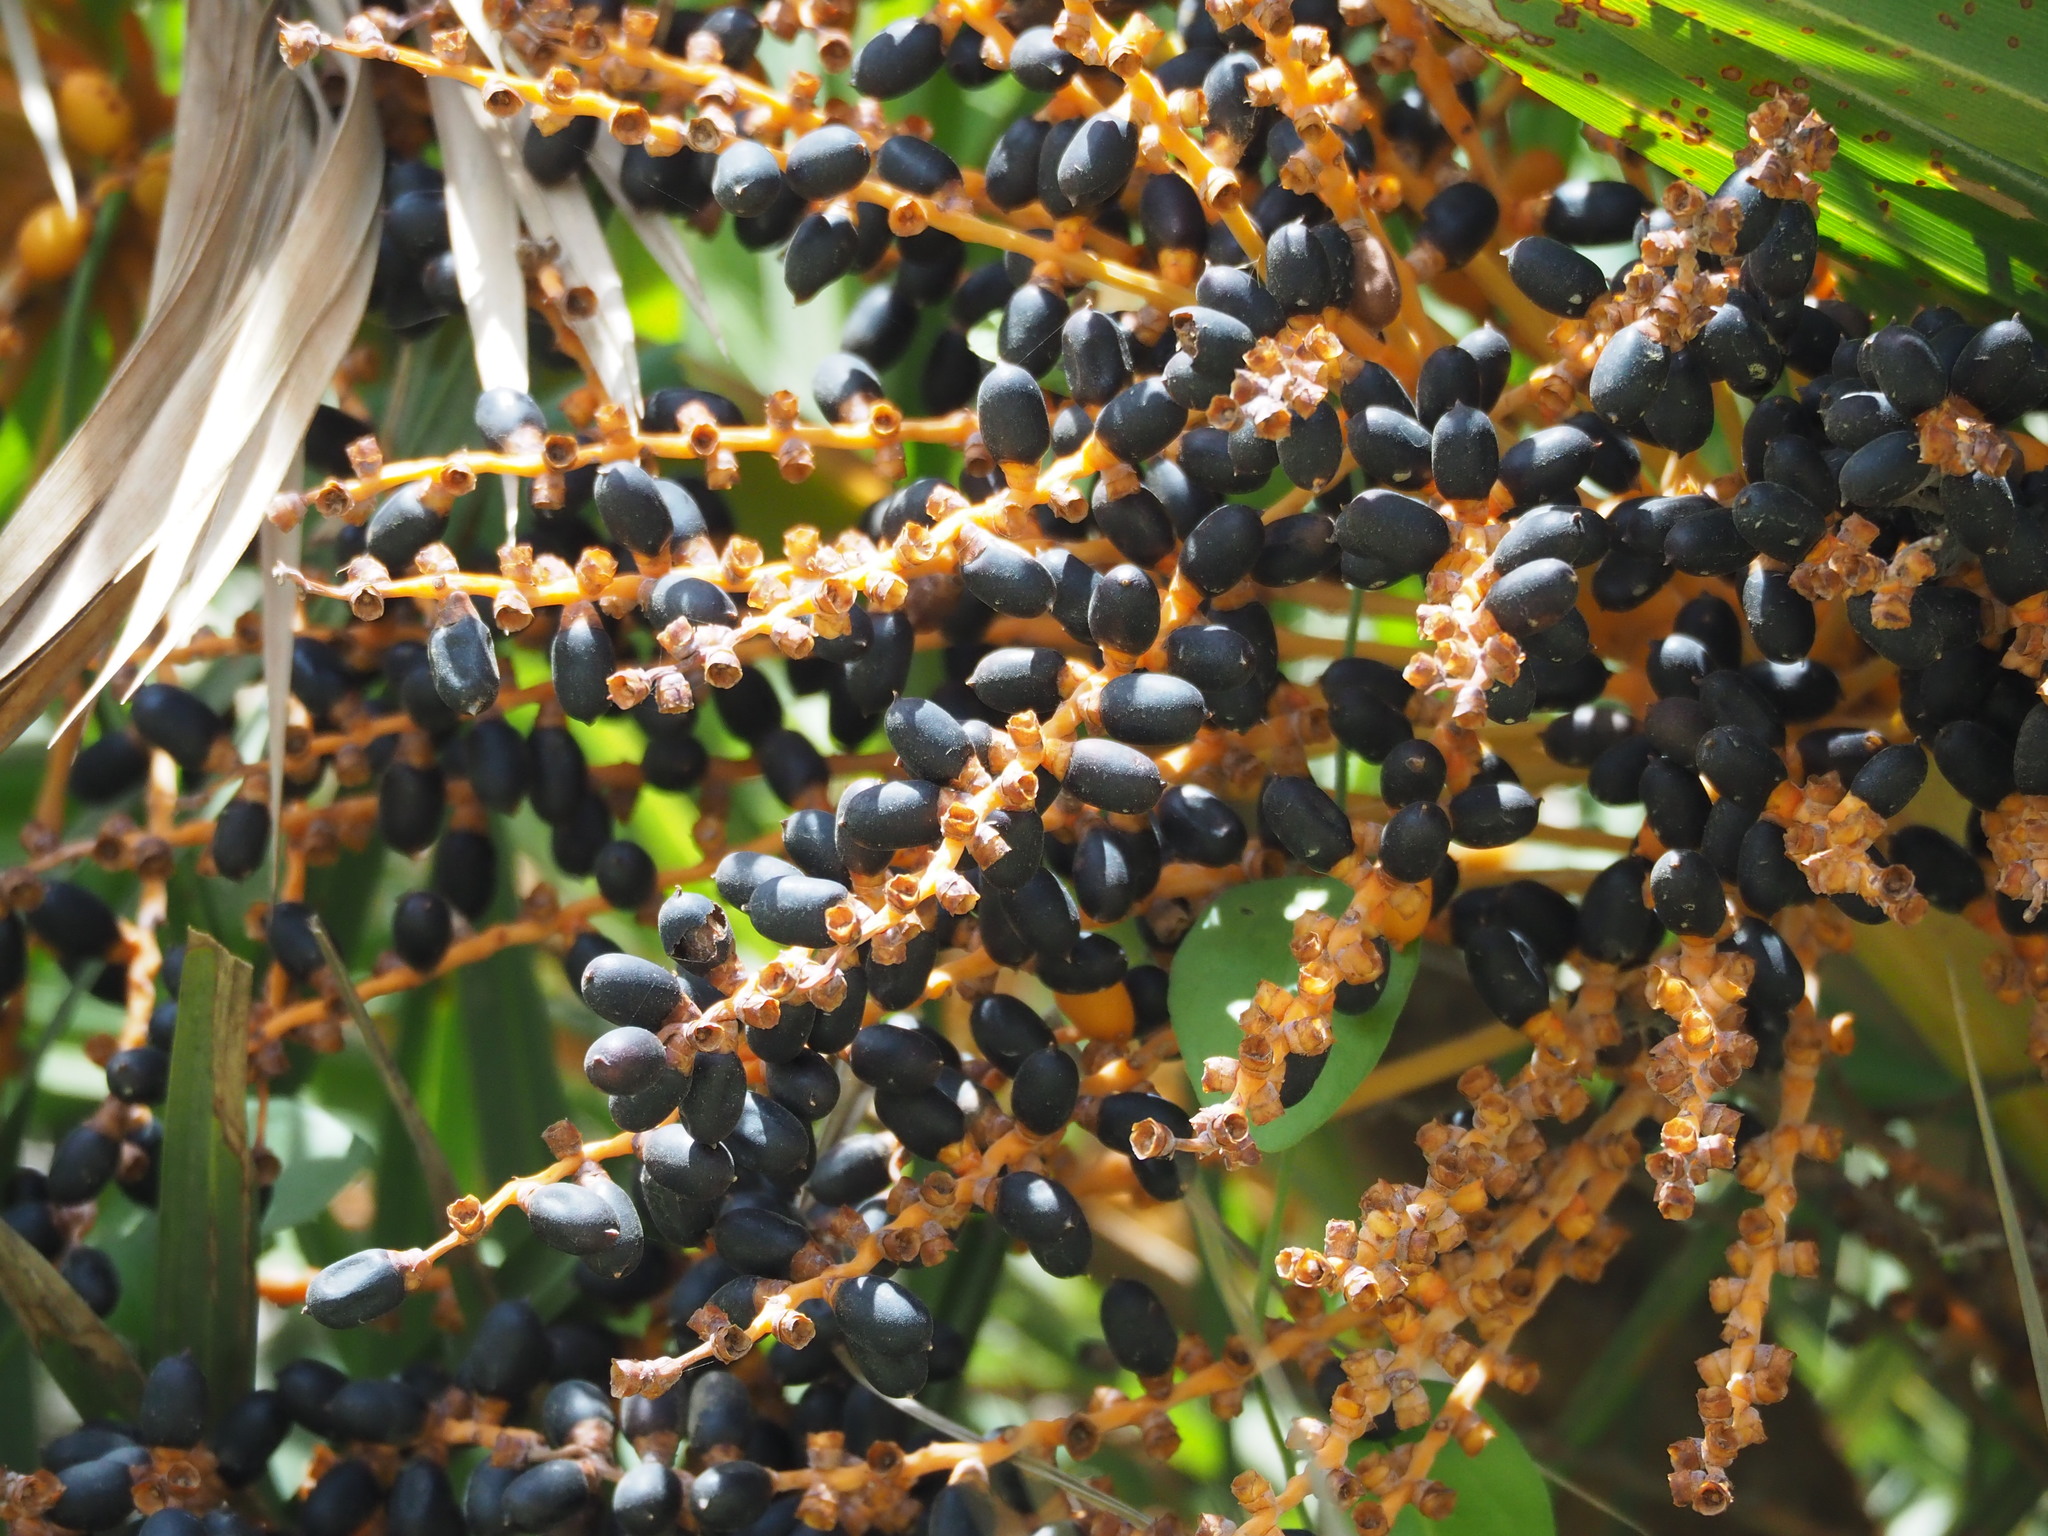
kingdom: Plantae
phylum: Tracheophyta
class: Liliopsida
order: Arecales
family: Arecaceae
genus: Phoenix
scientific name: Phoenix loureiroi
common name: Loureiro's palm
